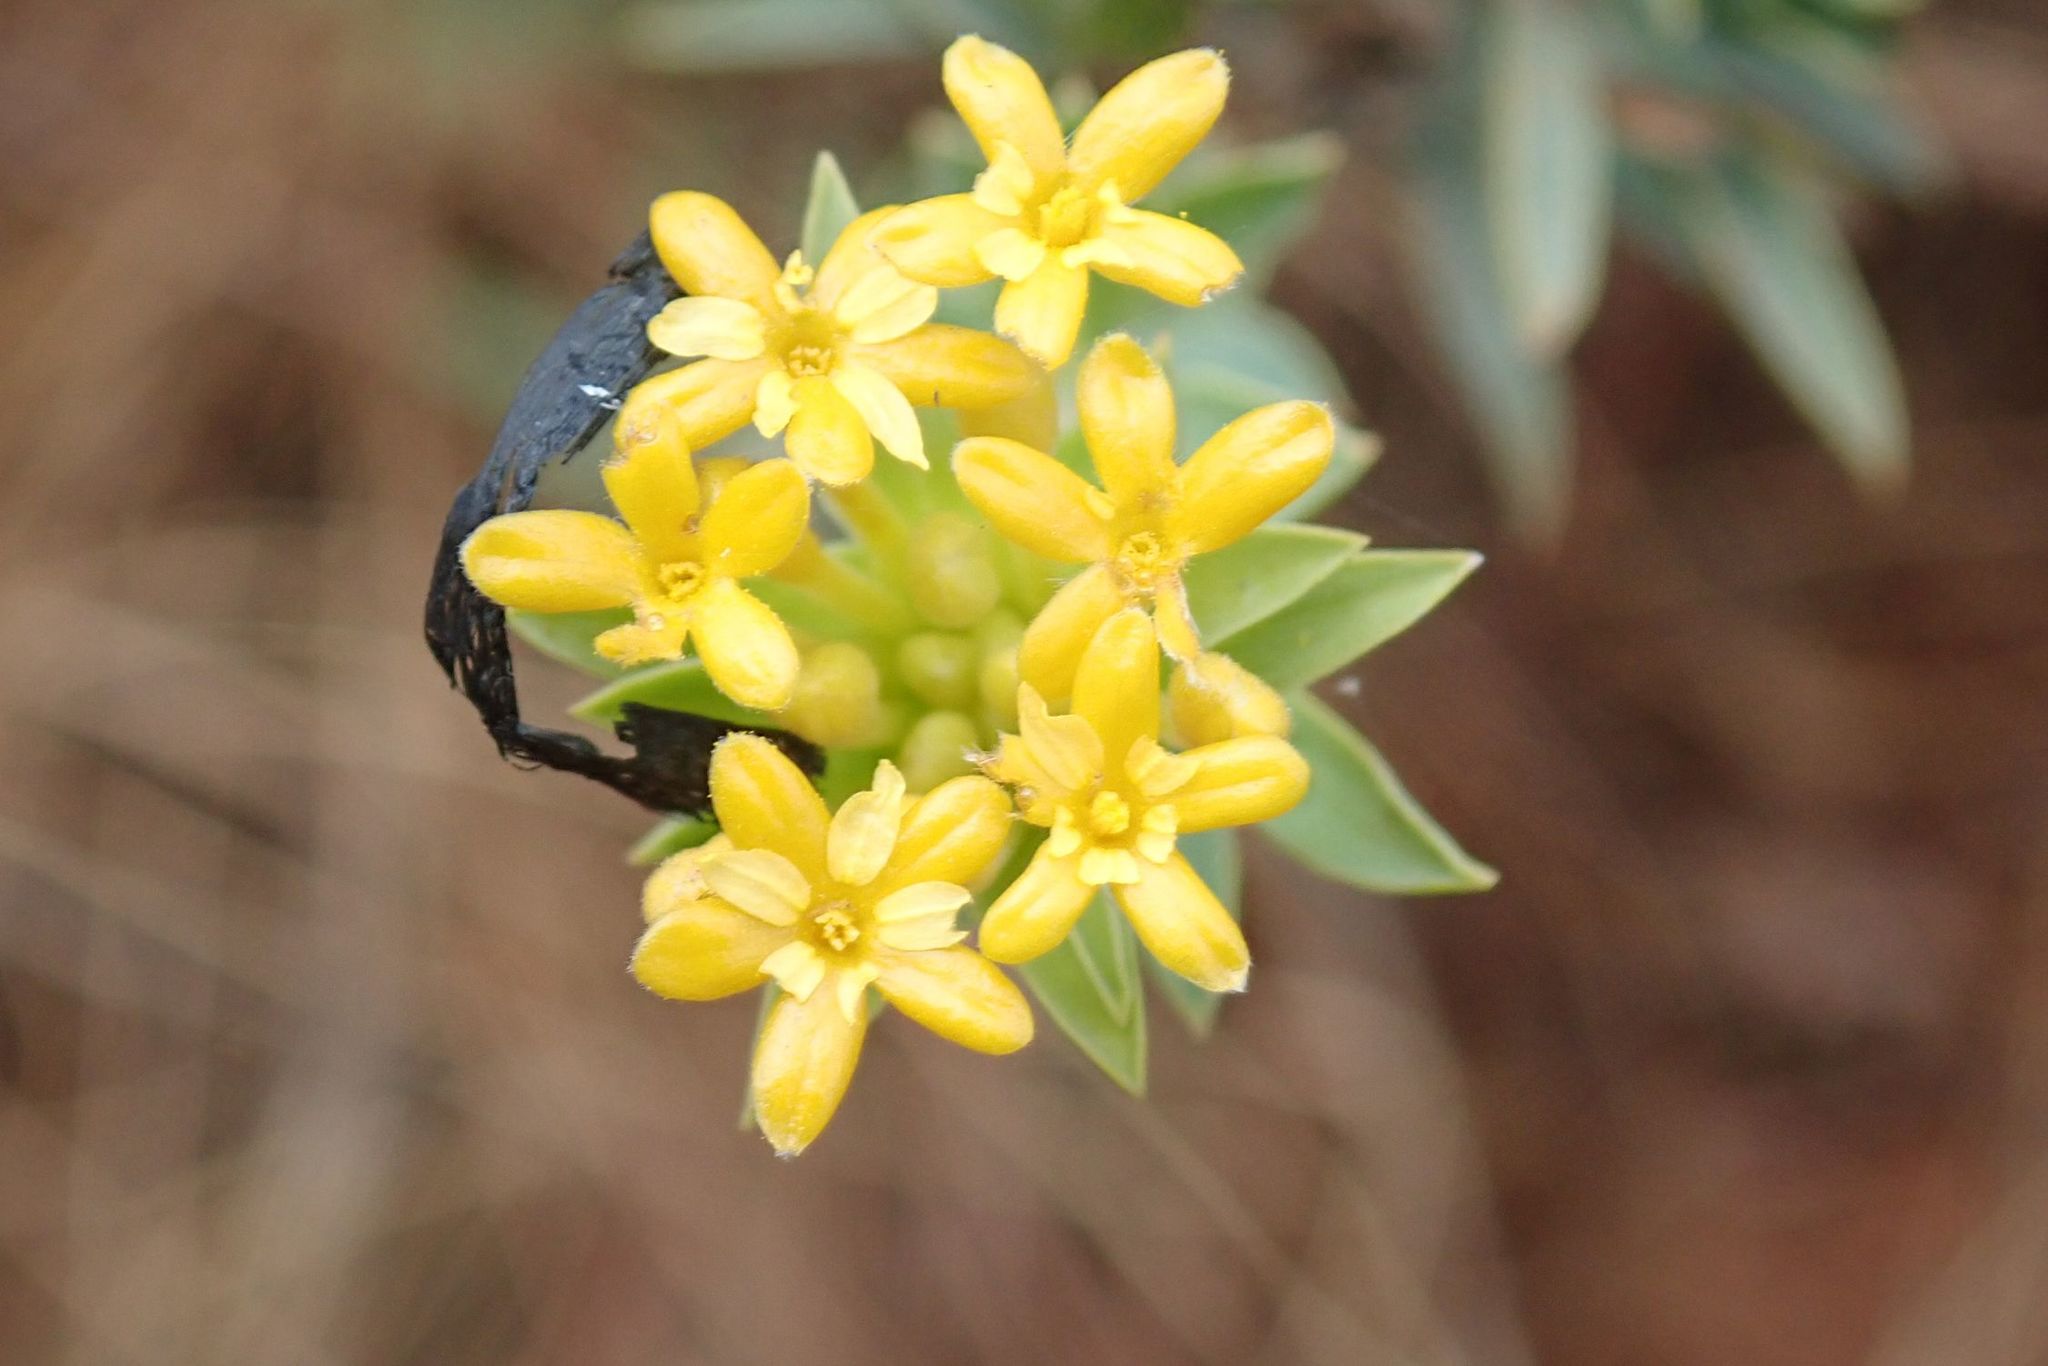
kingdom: Plantae
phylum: Tracheophyta
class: Magnoliopsida
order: Malvales
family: Thymelaeaceae
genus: Gnidia
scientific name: Gnidia capitata
